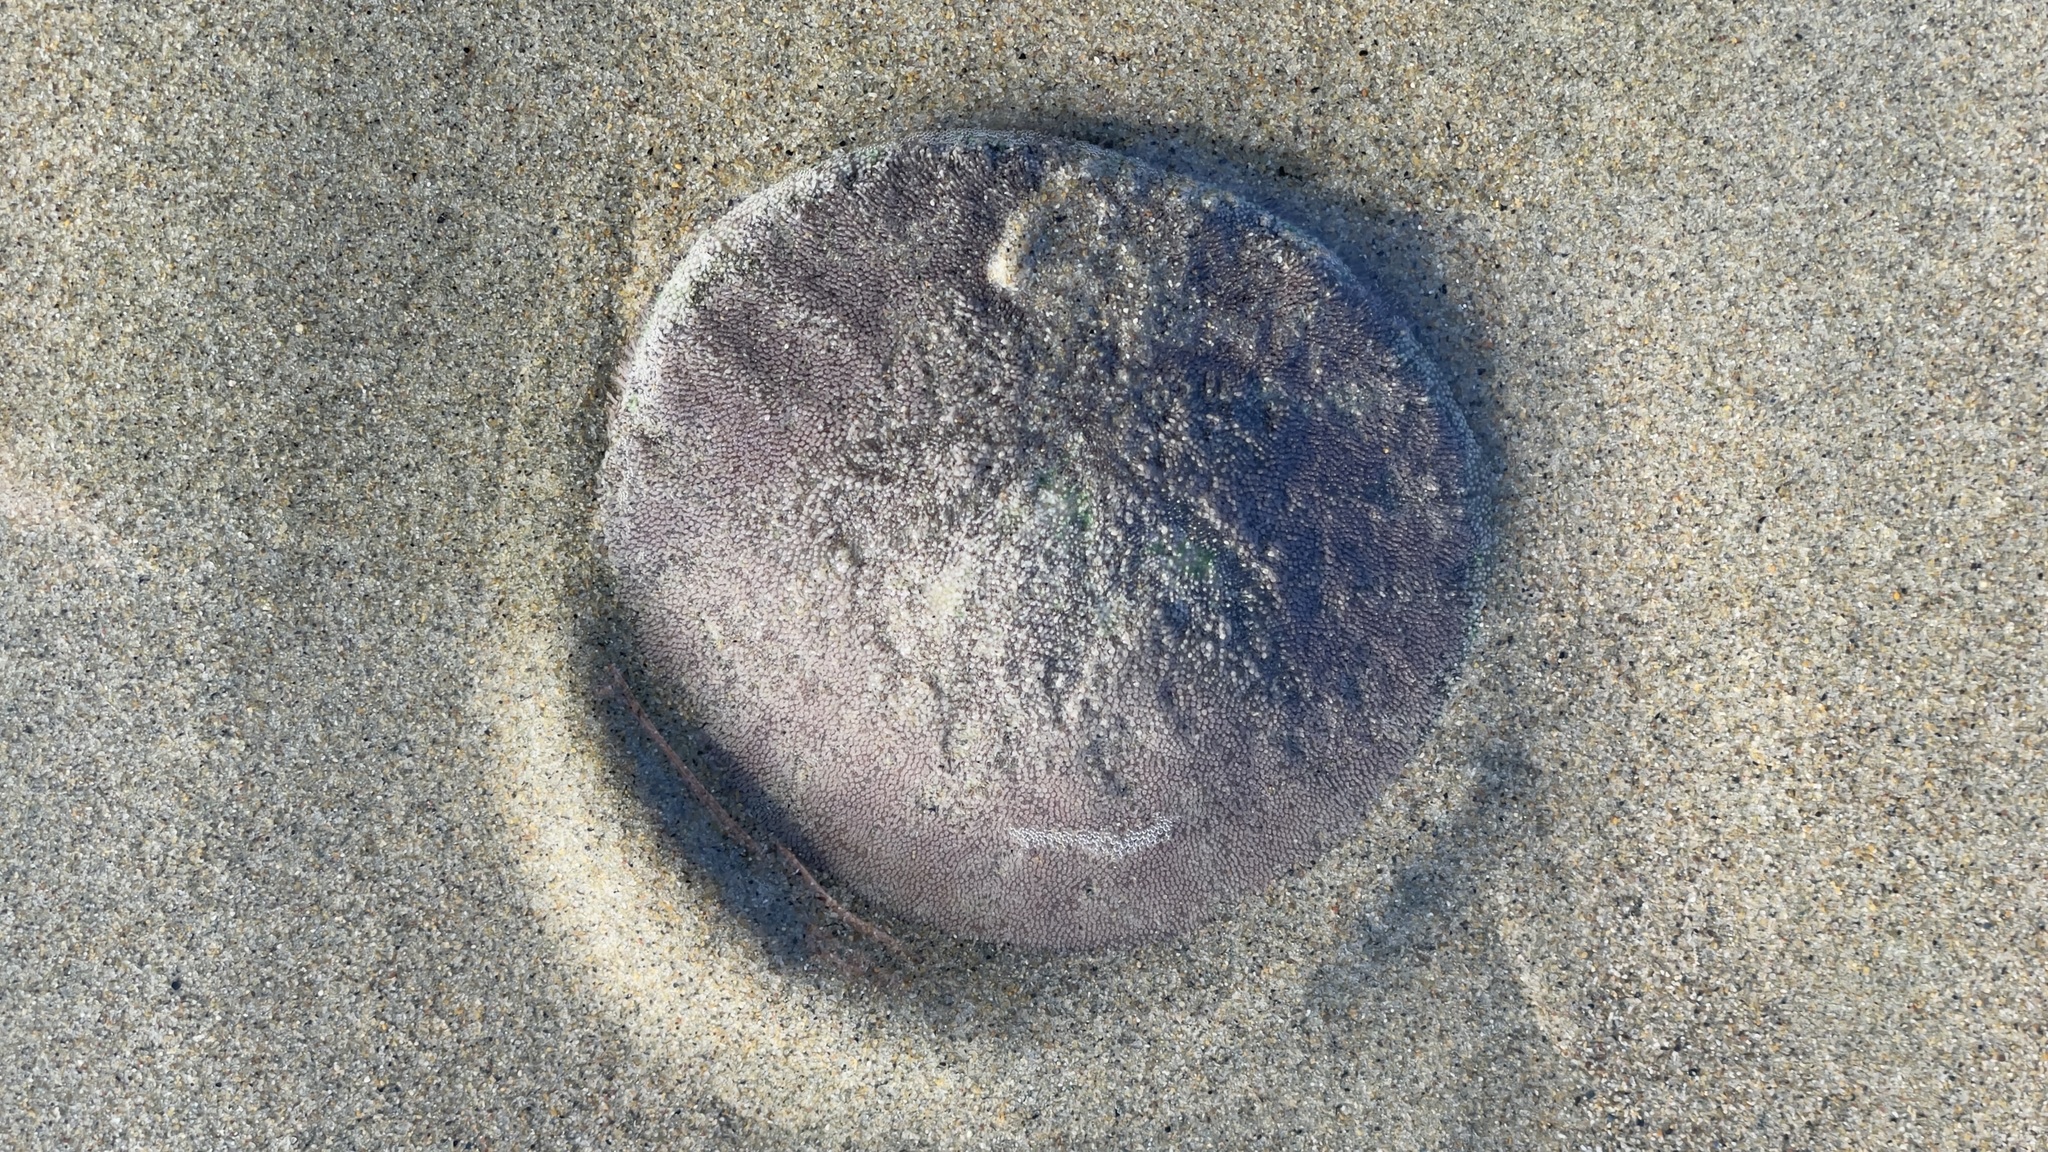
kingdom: Animalia
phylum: Echinodermata
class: Echinoidea
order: Echinolampadacea
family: Dendrasteridae
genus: Dendraster
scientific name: Dendraster excentricus
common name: Eccentric sand dollar sea urchin
